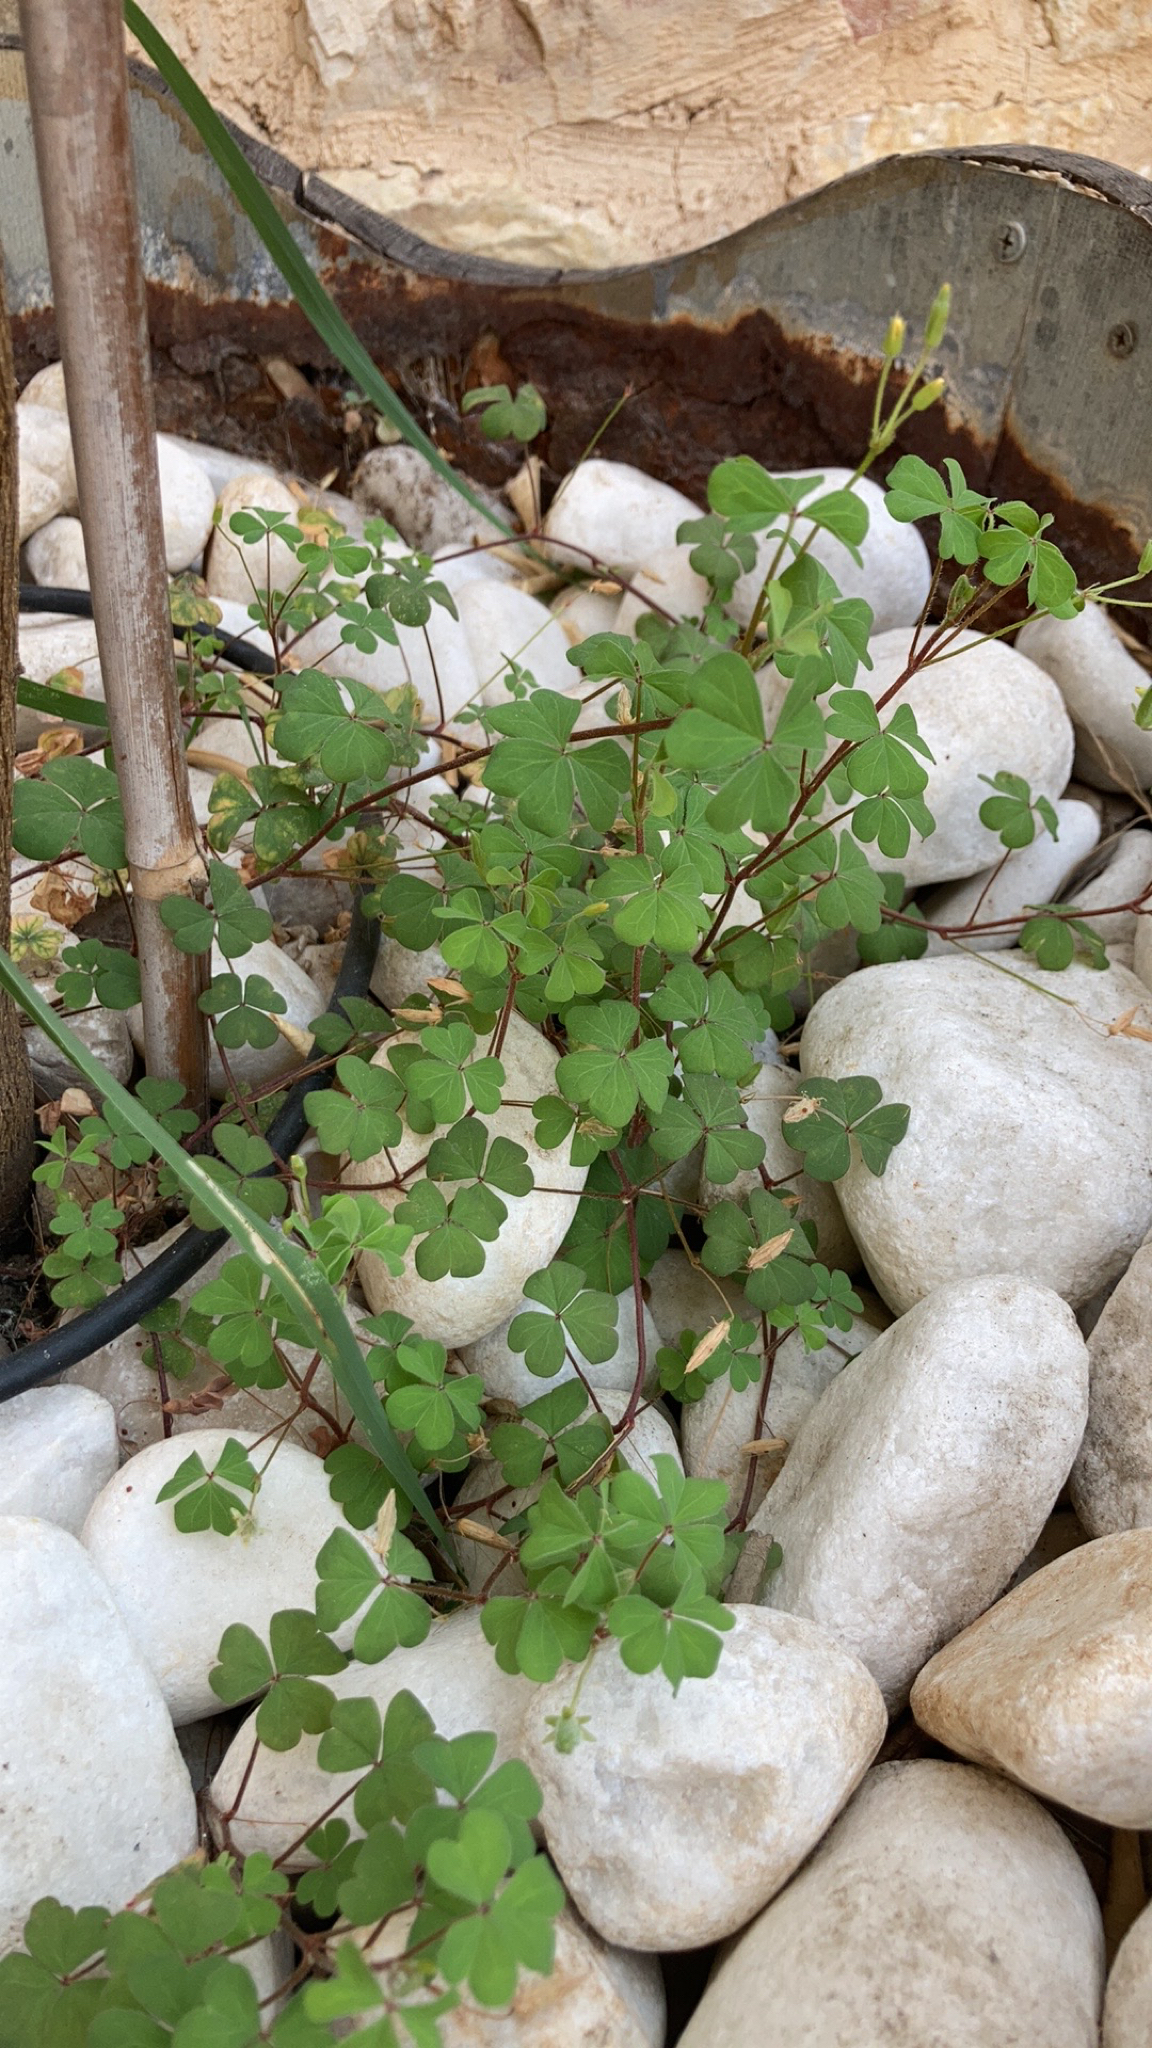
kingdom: Plantae
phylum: Tracheophyta
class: Magnoliopsida
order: Oxalidales
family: Oxalidaceae
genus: Oxalis
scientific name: Oxalis corniculata
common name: Procumbent yellow-sorrel
